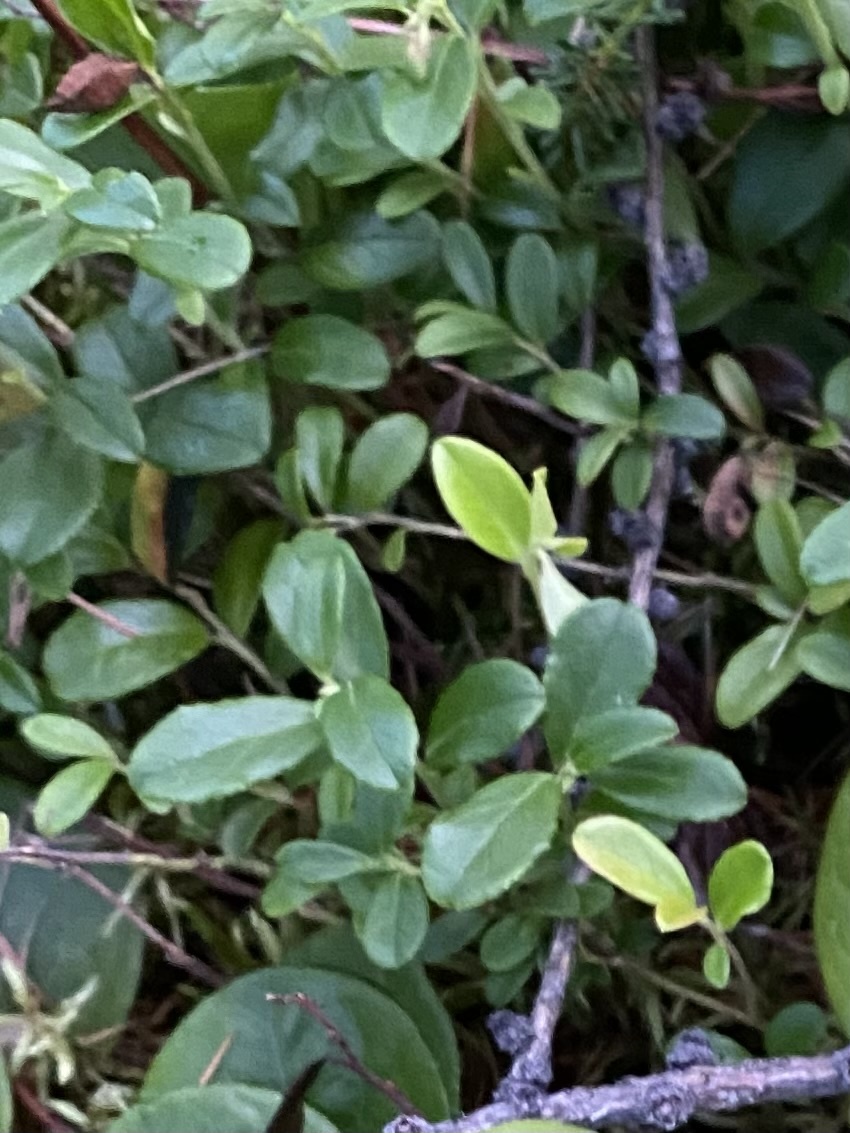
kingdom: Plantae
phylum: Tracheophyta
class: Magnoliopsida
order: Ericales
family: Ericaceae
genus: Vaccinium
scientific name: Vaccinium vitis-idaea
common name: Cowberry
